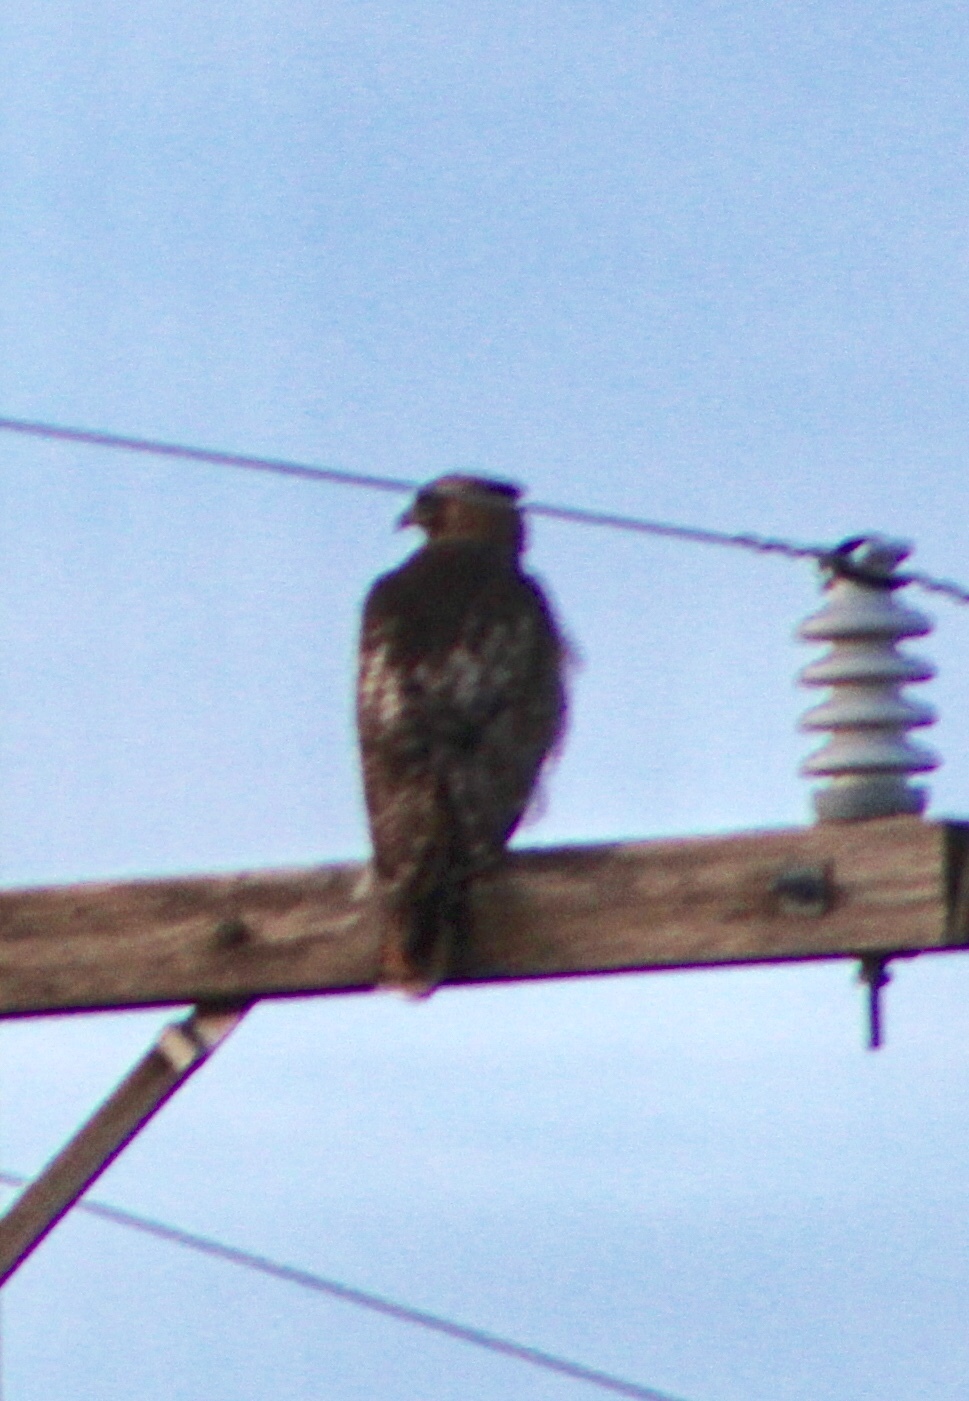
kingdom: Animalia
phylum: Chordata
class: Aves
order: Accipitriformes
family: Accipitridae
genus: Buteo
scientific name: Buteo jamaicensis
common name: Red-tailed hawk
